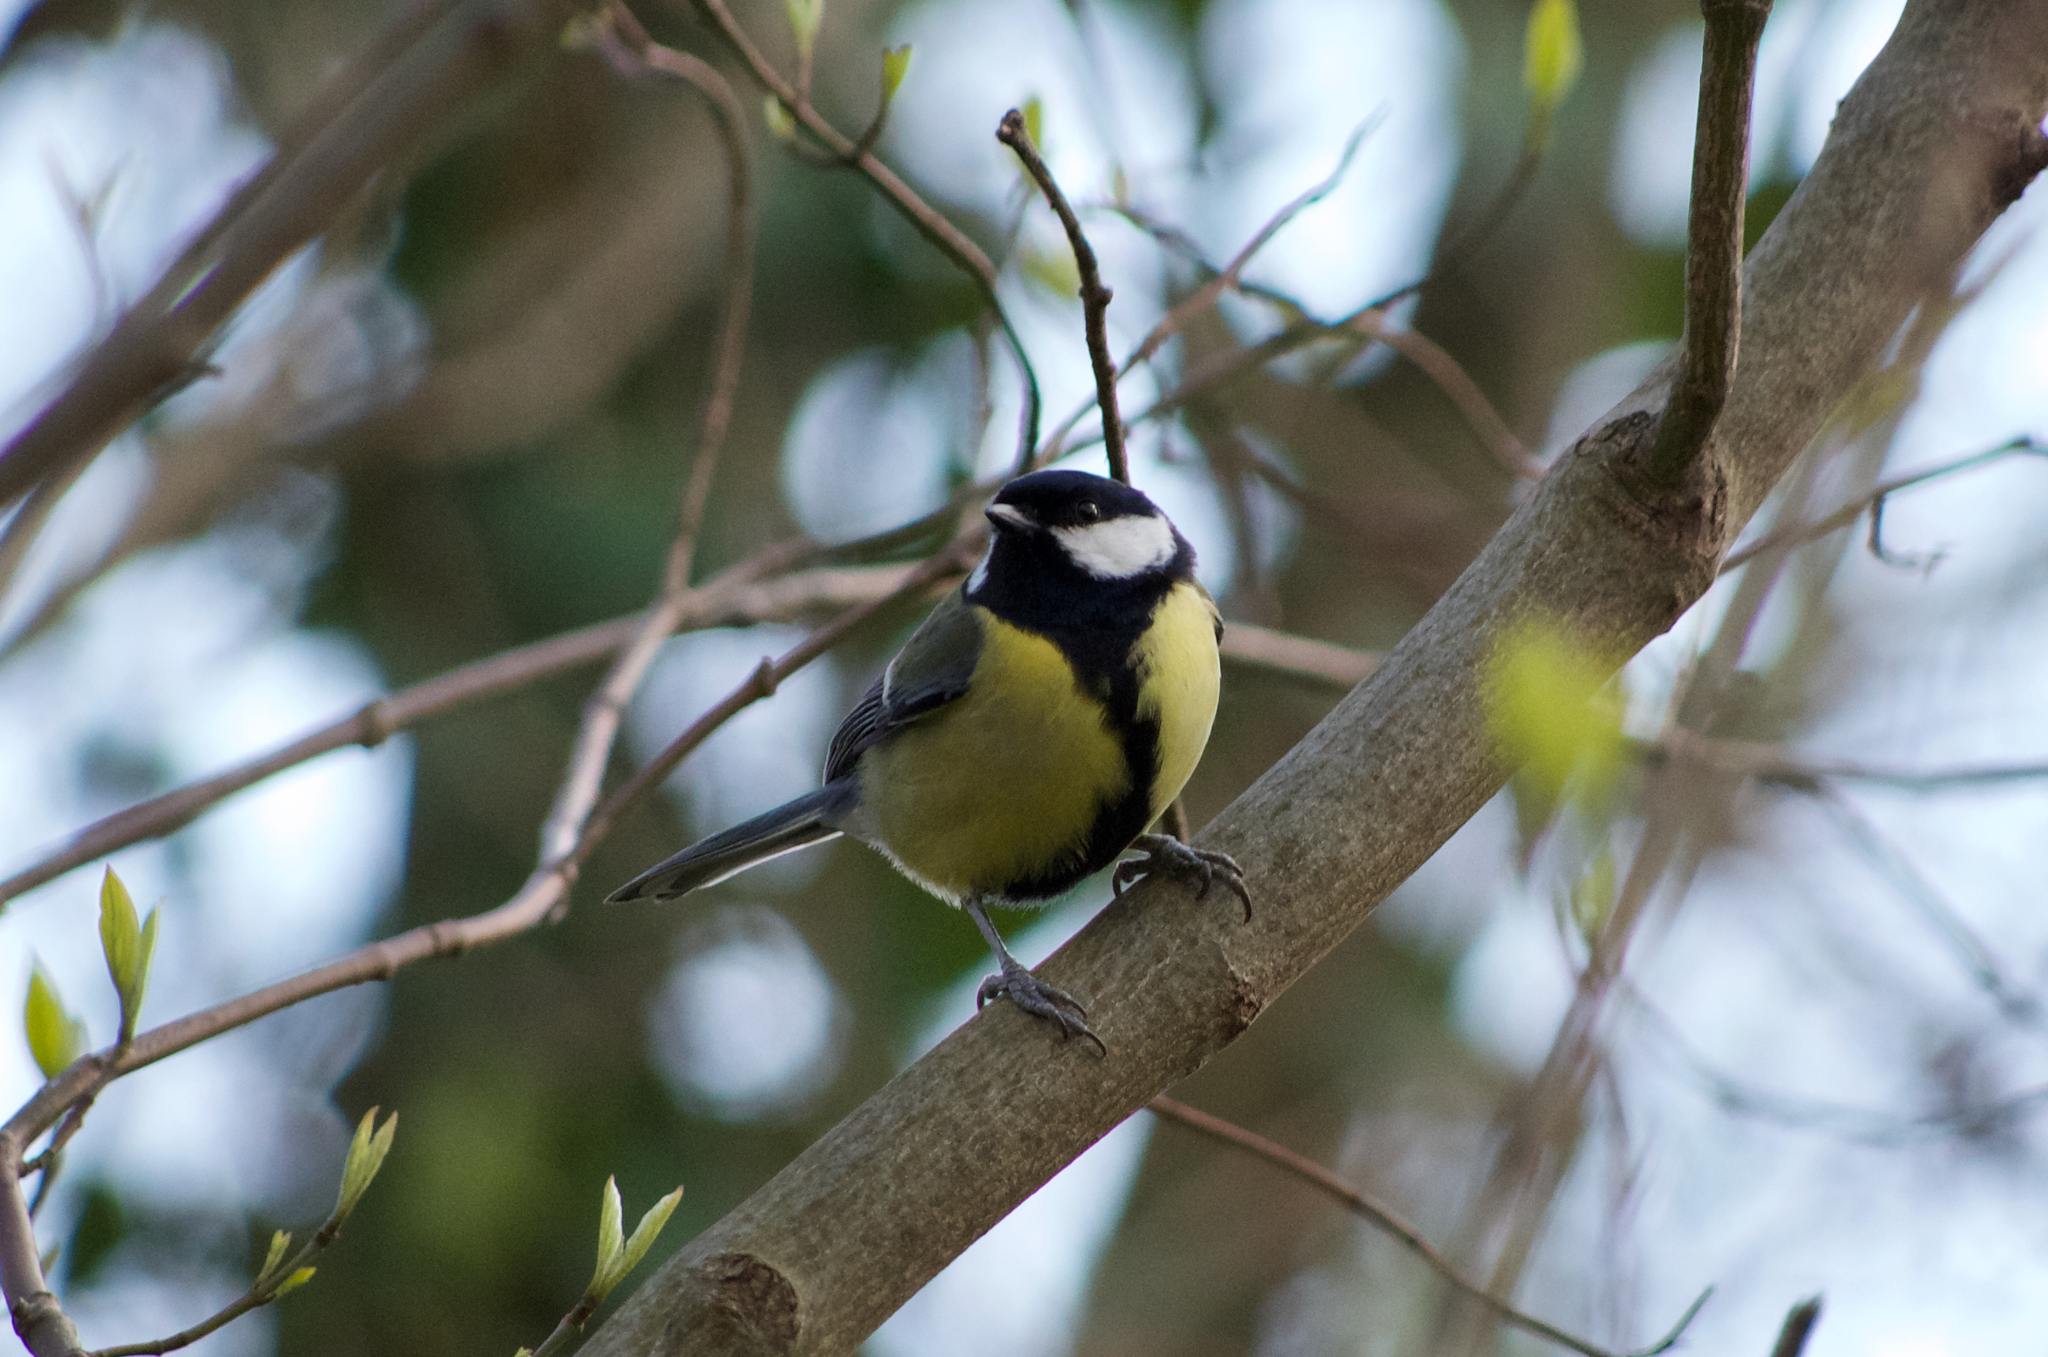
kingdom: Animalia
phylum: Chordata
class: Aves
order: Passeriformes
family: Paridae
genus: Parus
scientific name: Parus major
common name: Great tit
